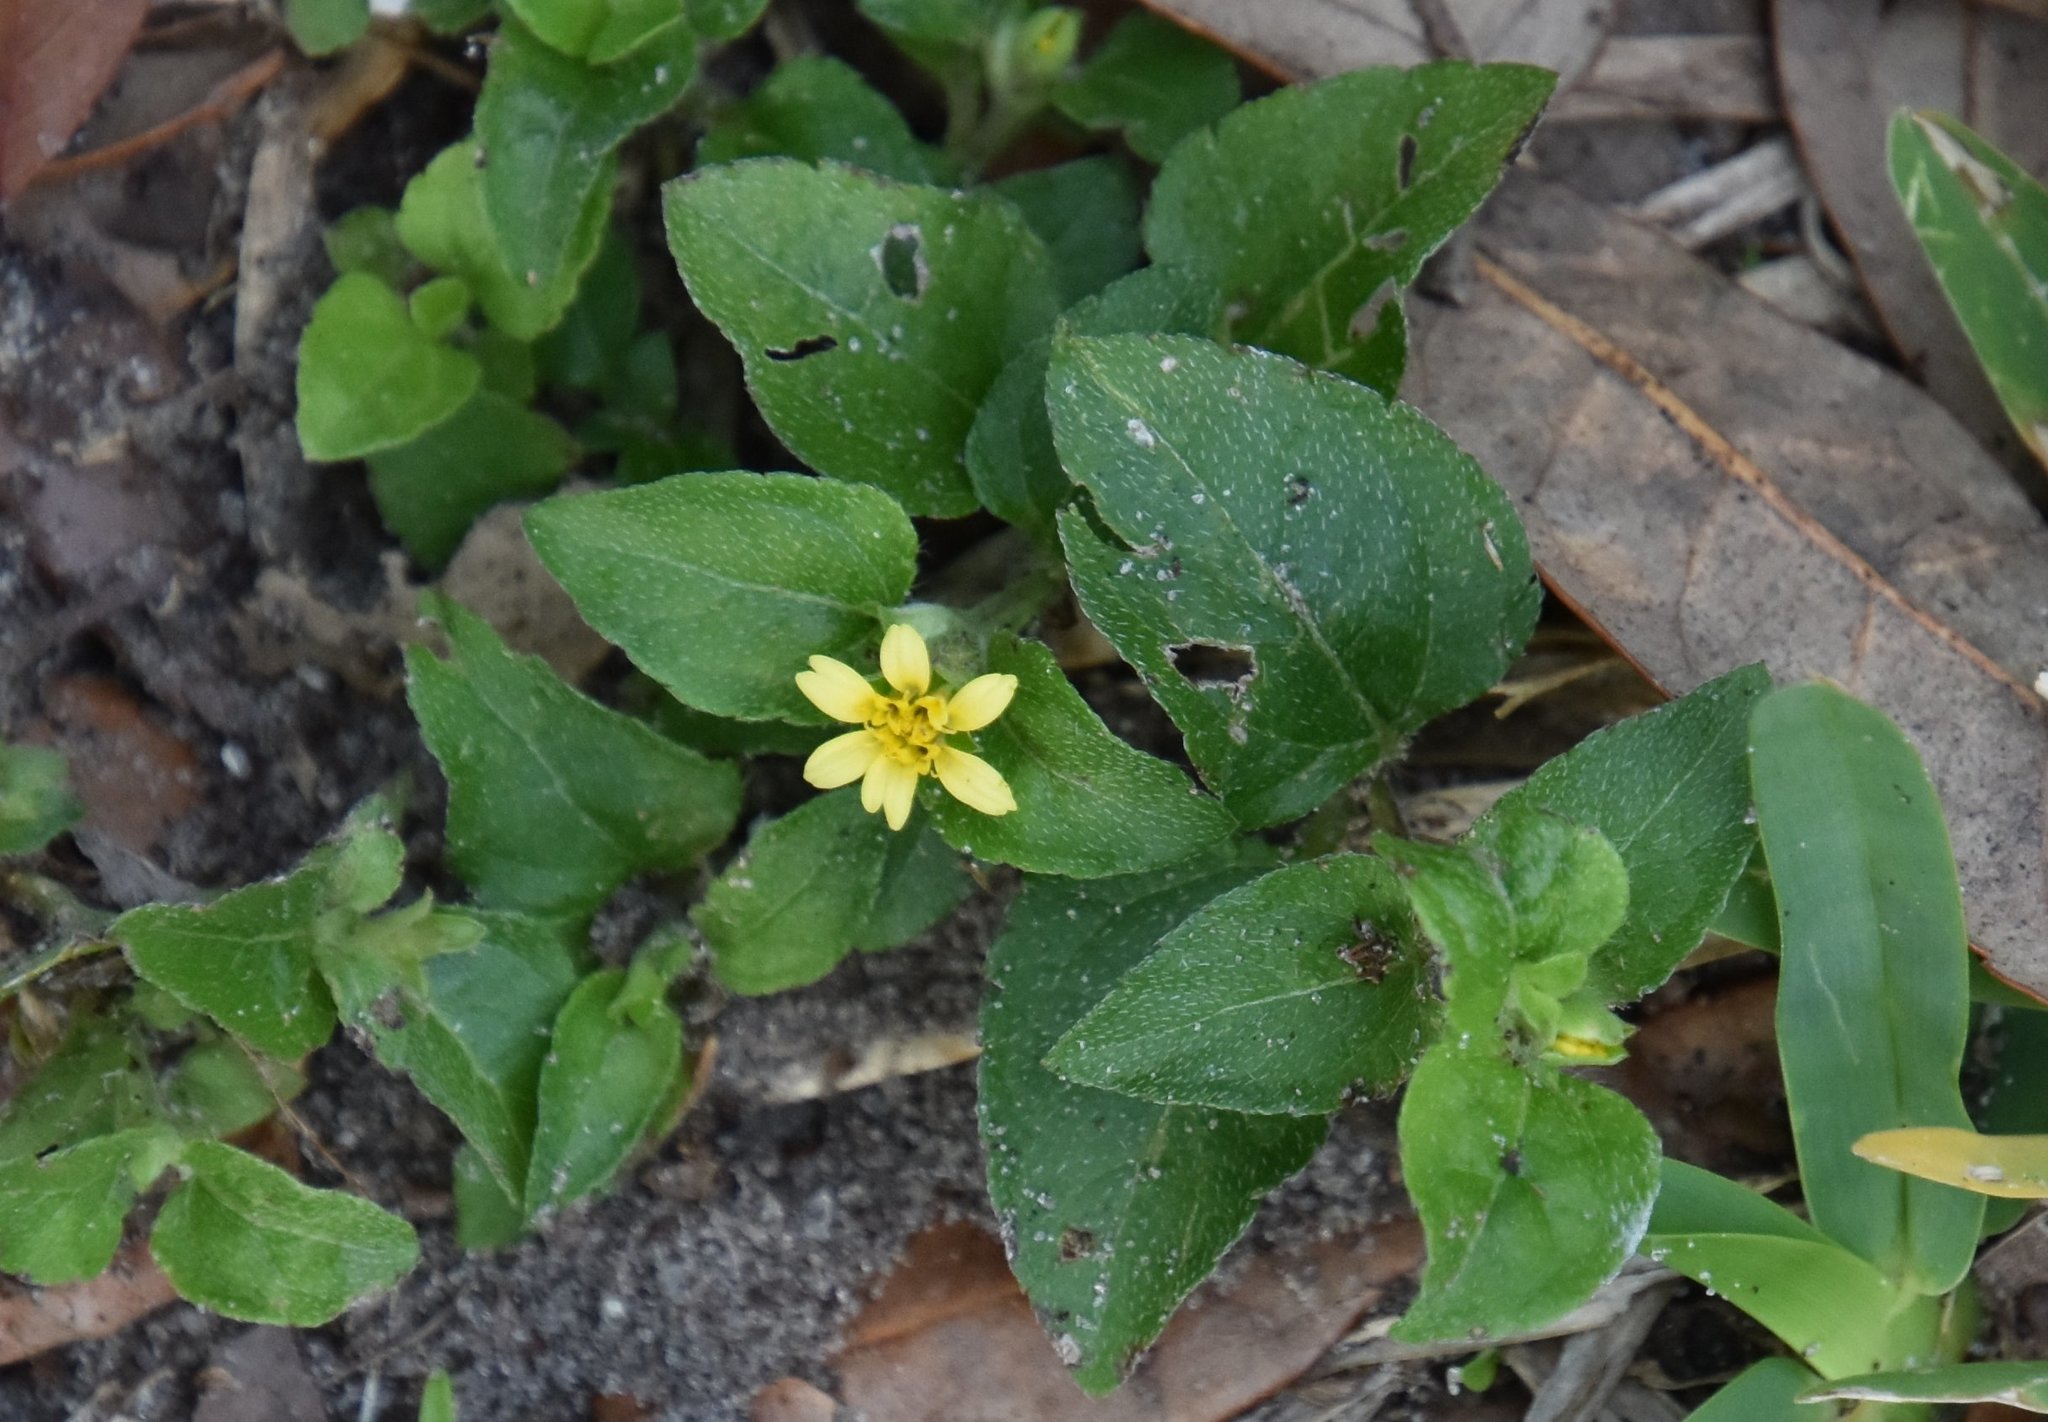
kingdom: Plantae
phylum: Tracheophyta
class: Magnoliopsida
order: Asterales
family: Asteraceae
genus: Calyptocarpus
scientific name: Calyptocarpus vialis
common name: Straggler daisy
